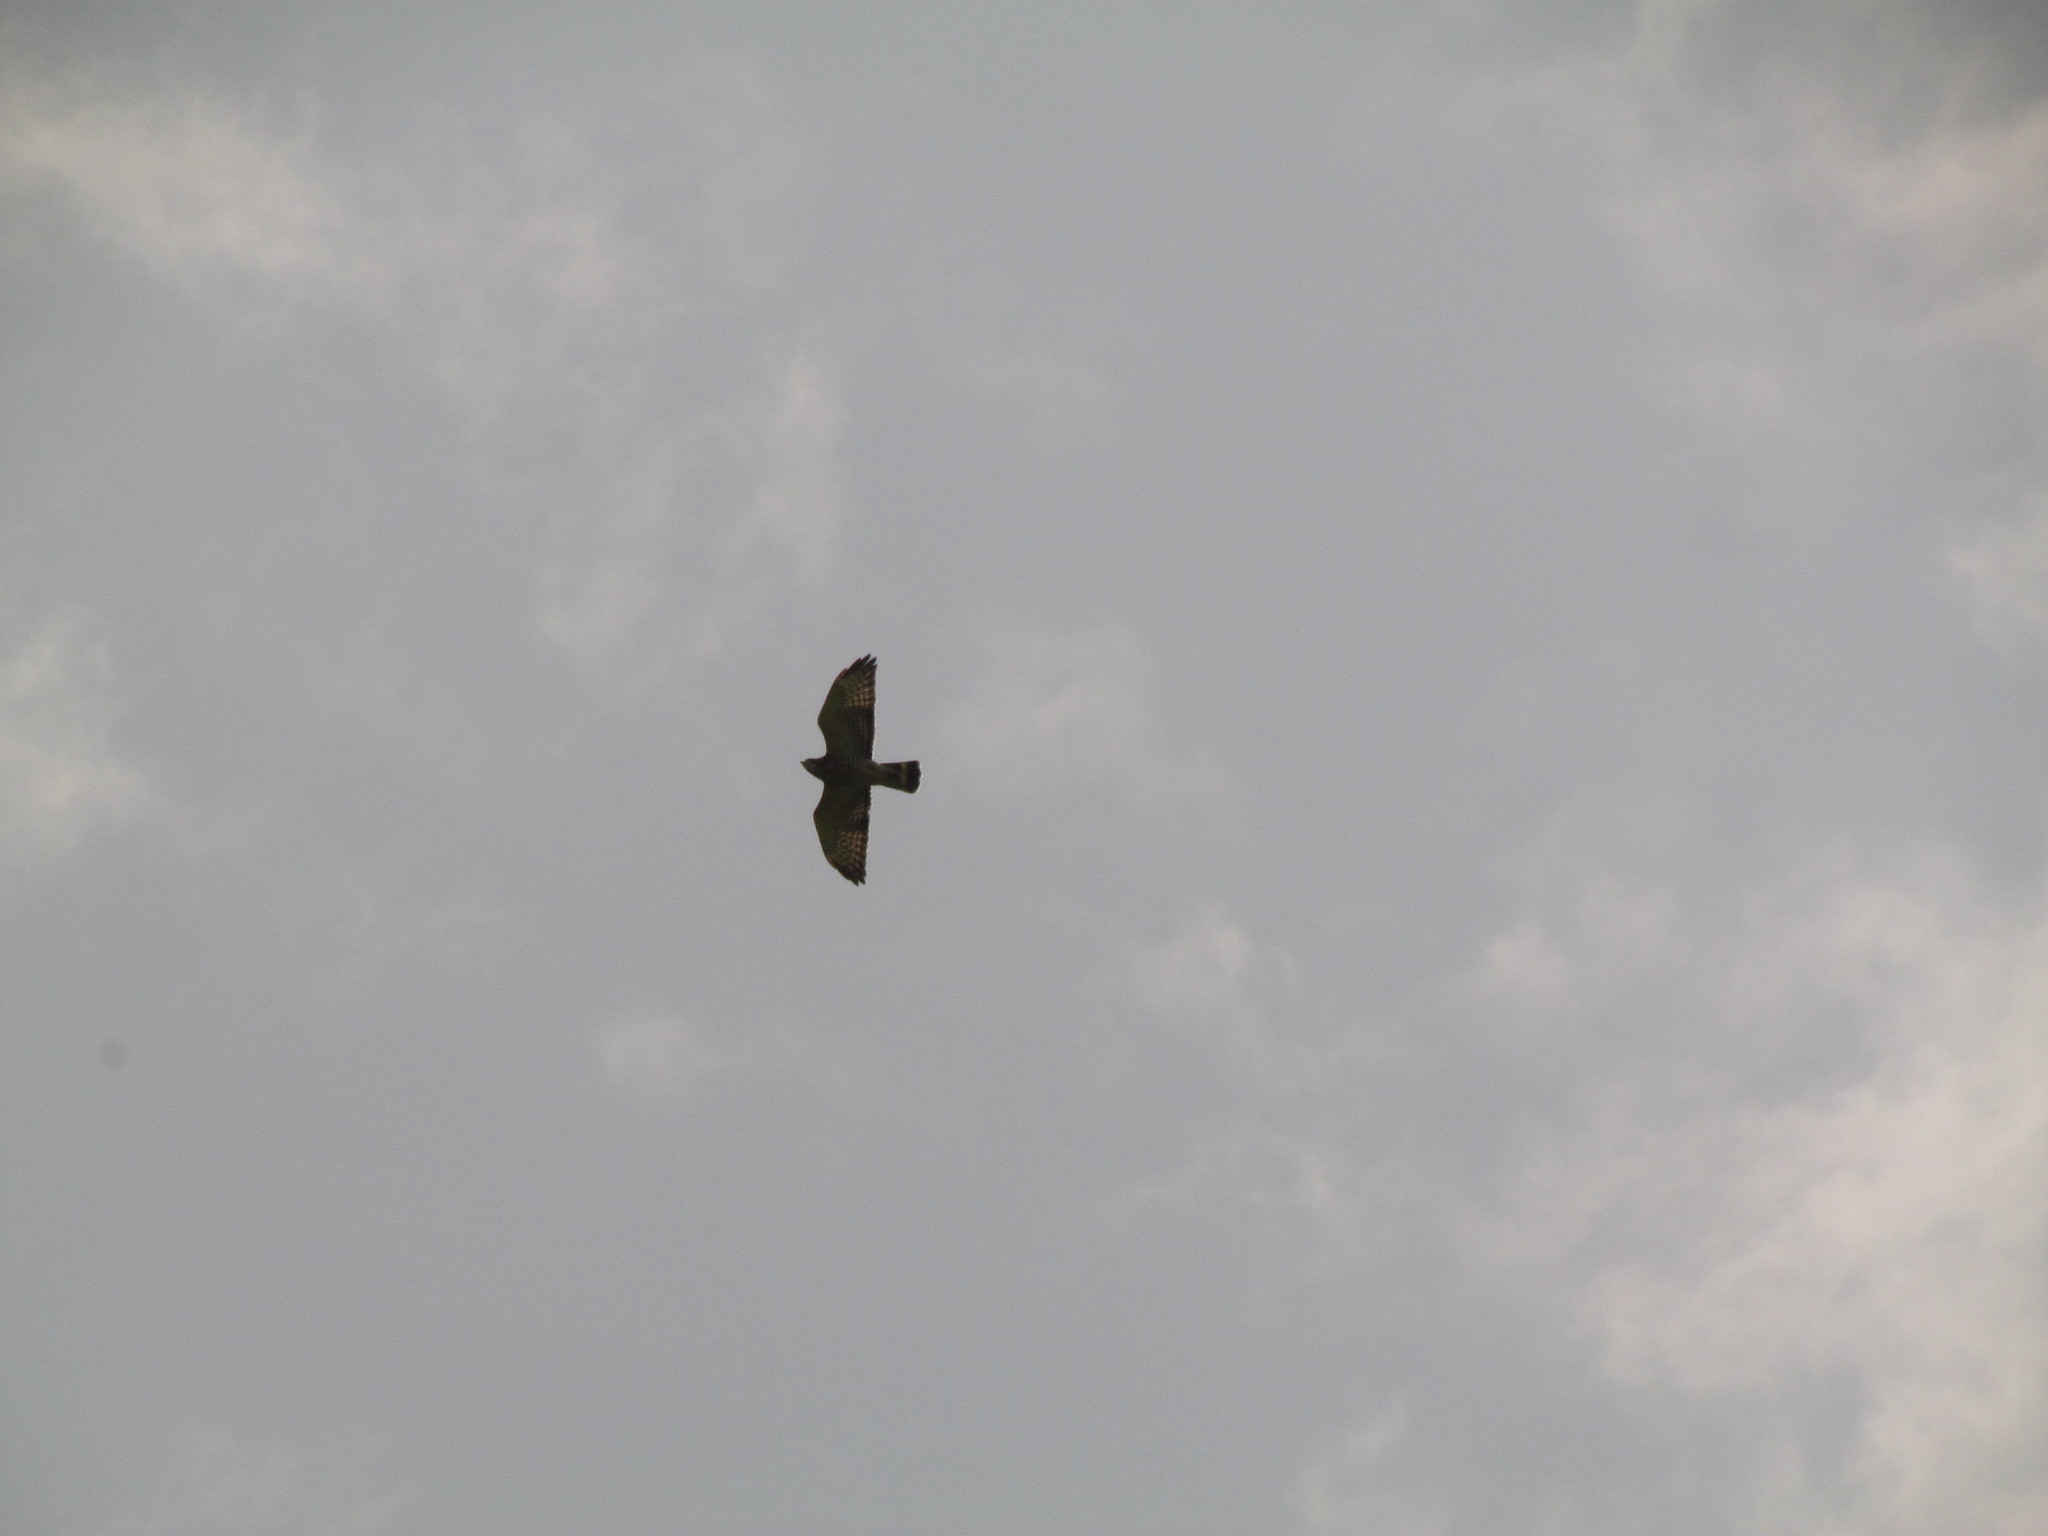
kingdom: Animalia
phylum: Chordata
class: Aves
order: Accipitriformes
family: Accipitridae
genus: Buteo
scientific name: Buteo platypterus
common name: Broad-winged hawk
